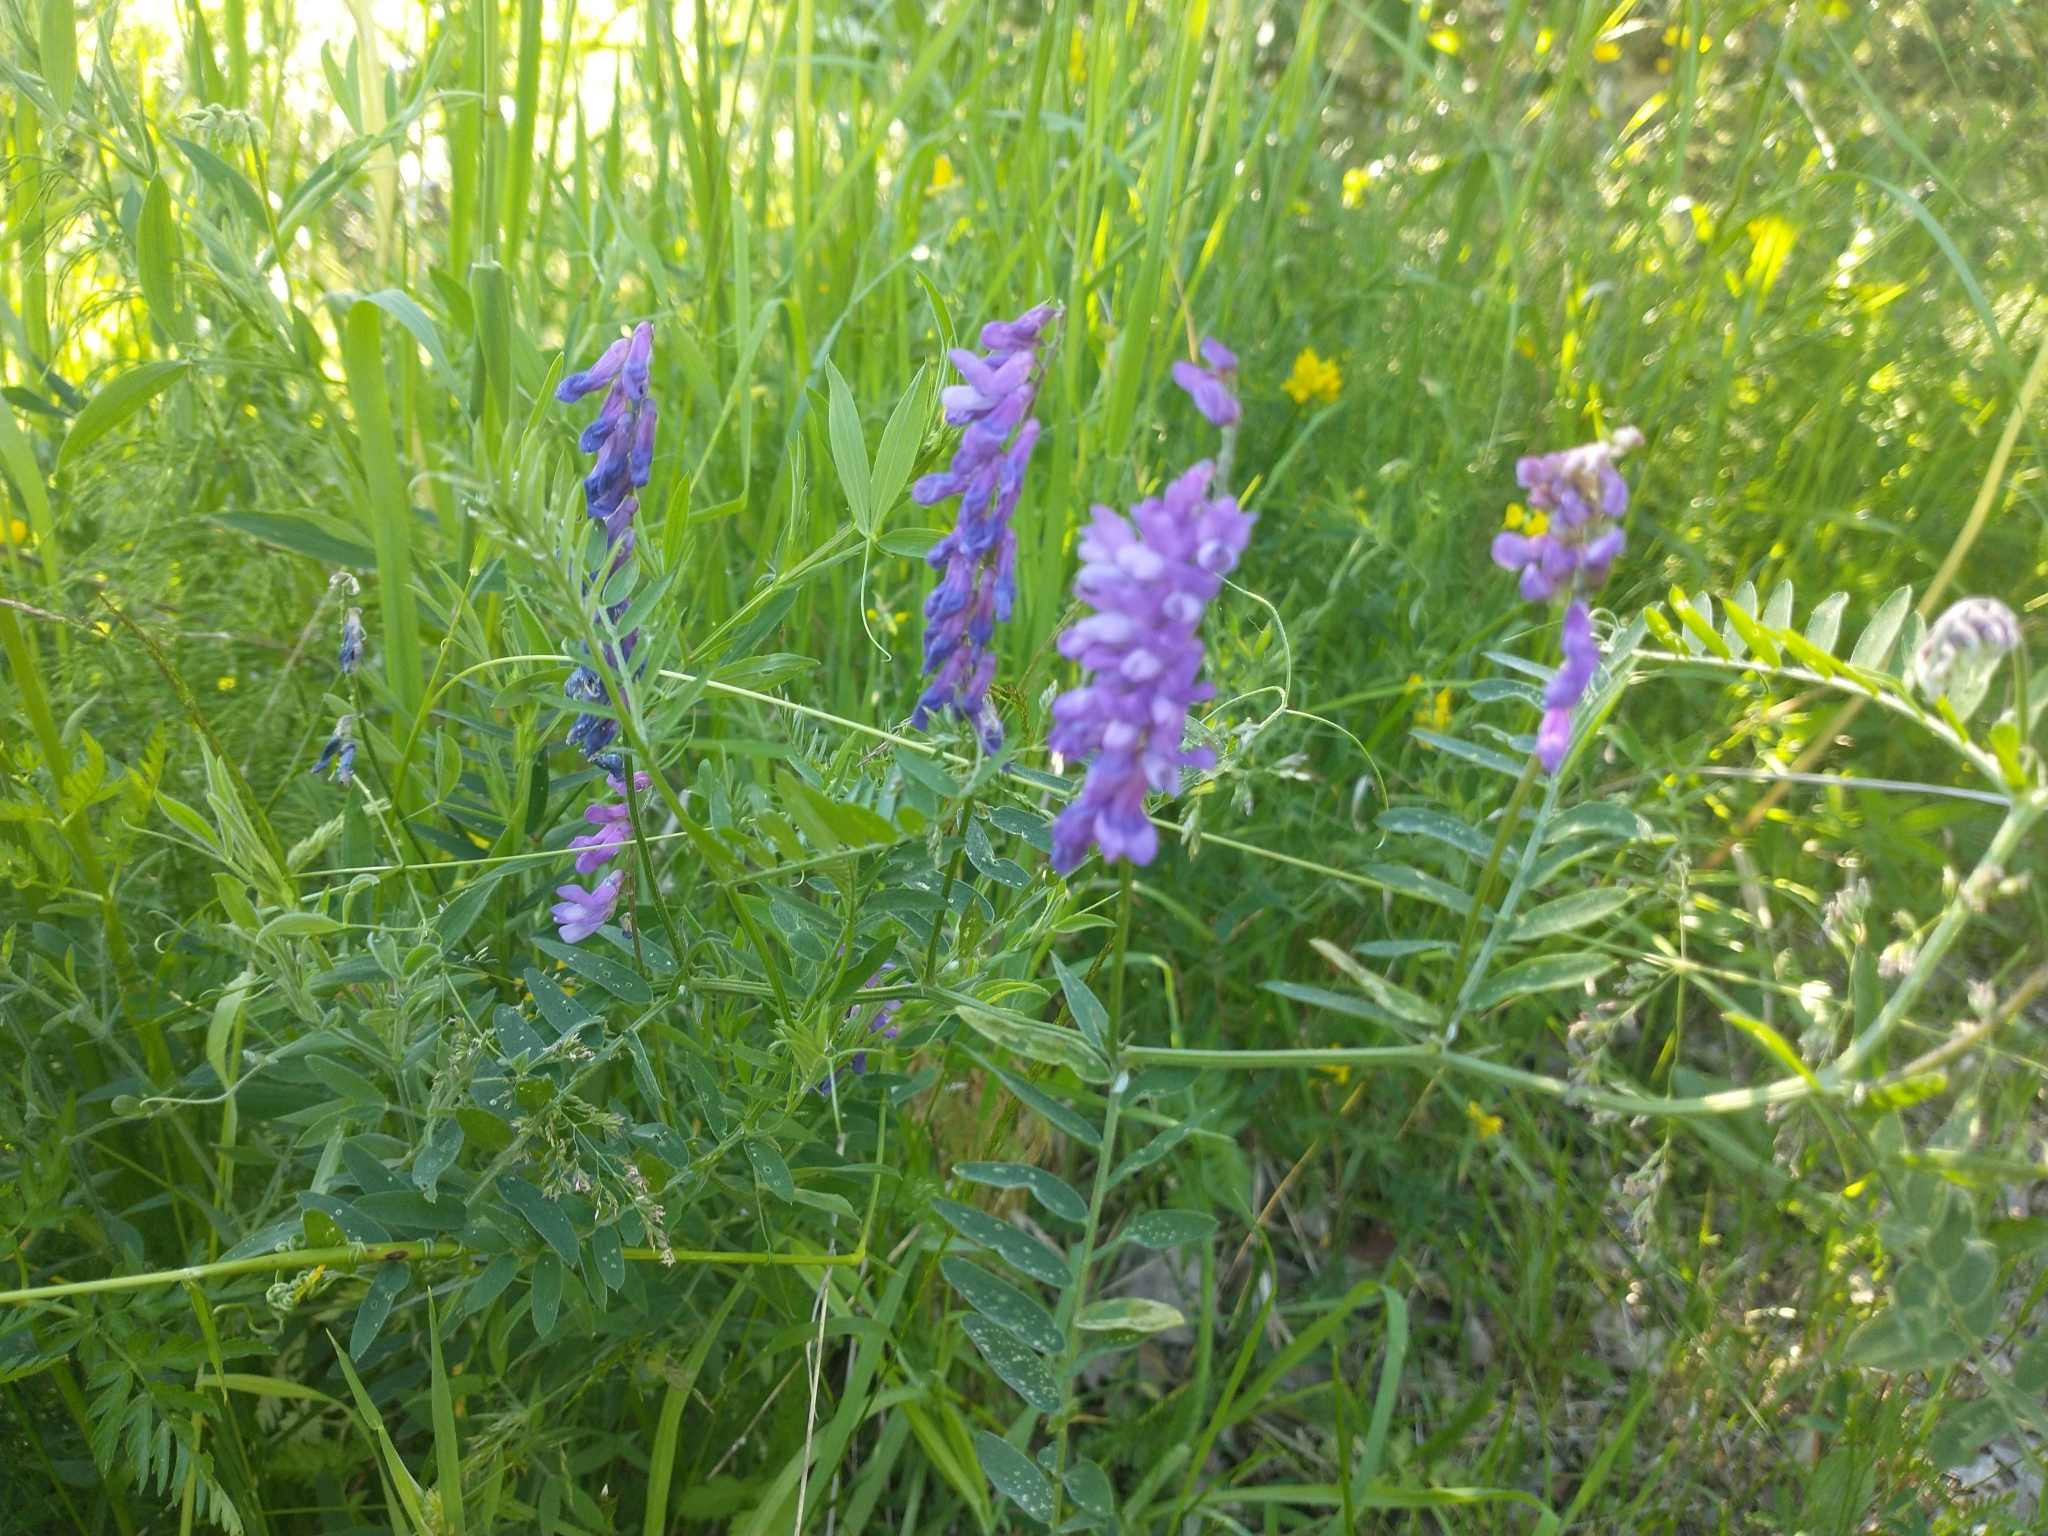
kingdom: Plantae
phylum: Tracheophyta
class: Magnoliopsida
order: Fabales
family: Fabaceae
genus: Vicia
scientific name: Vicia cracca
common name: Bird vetch
